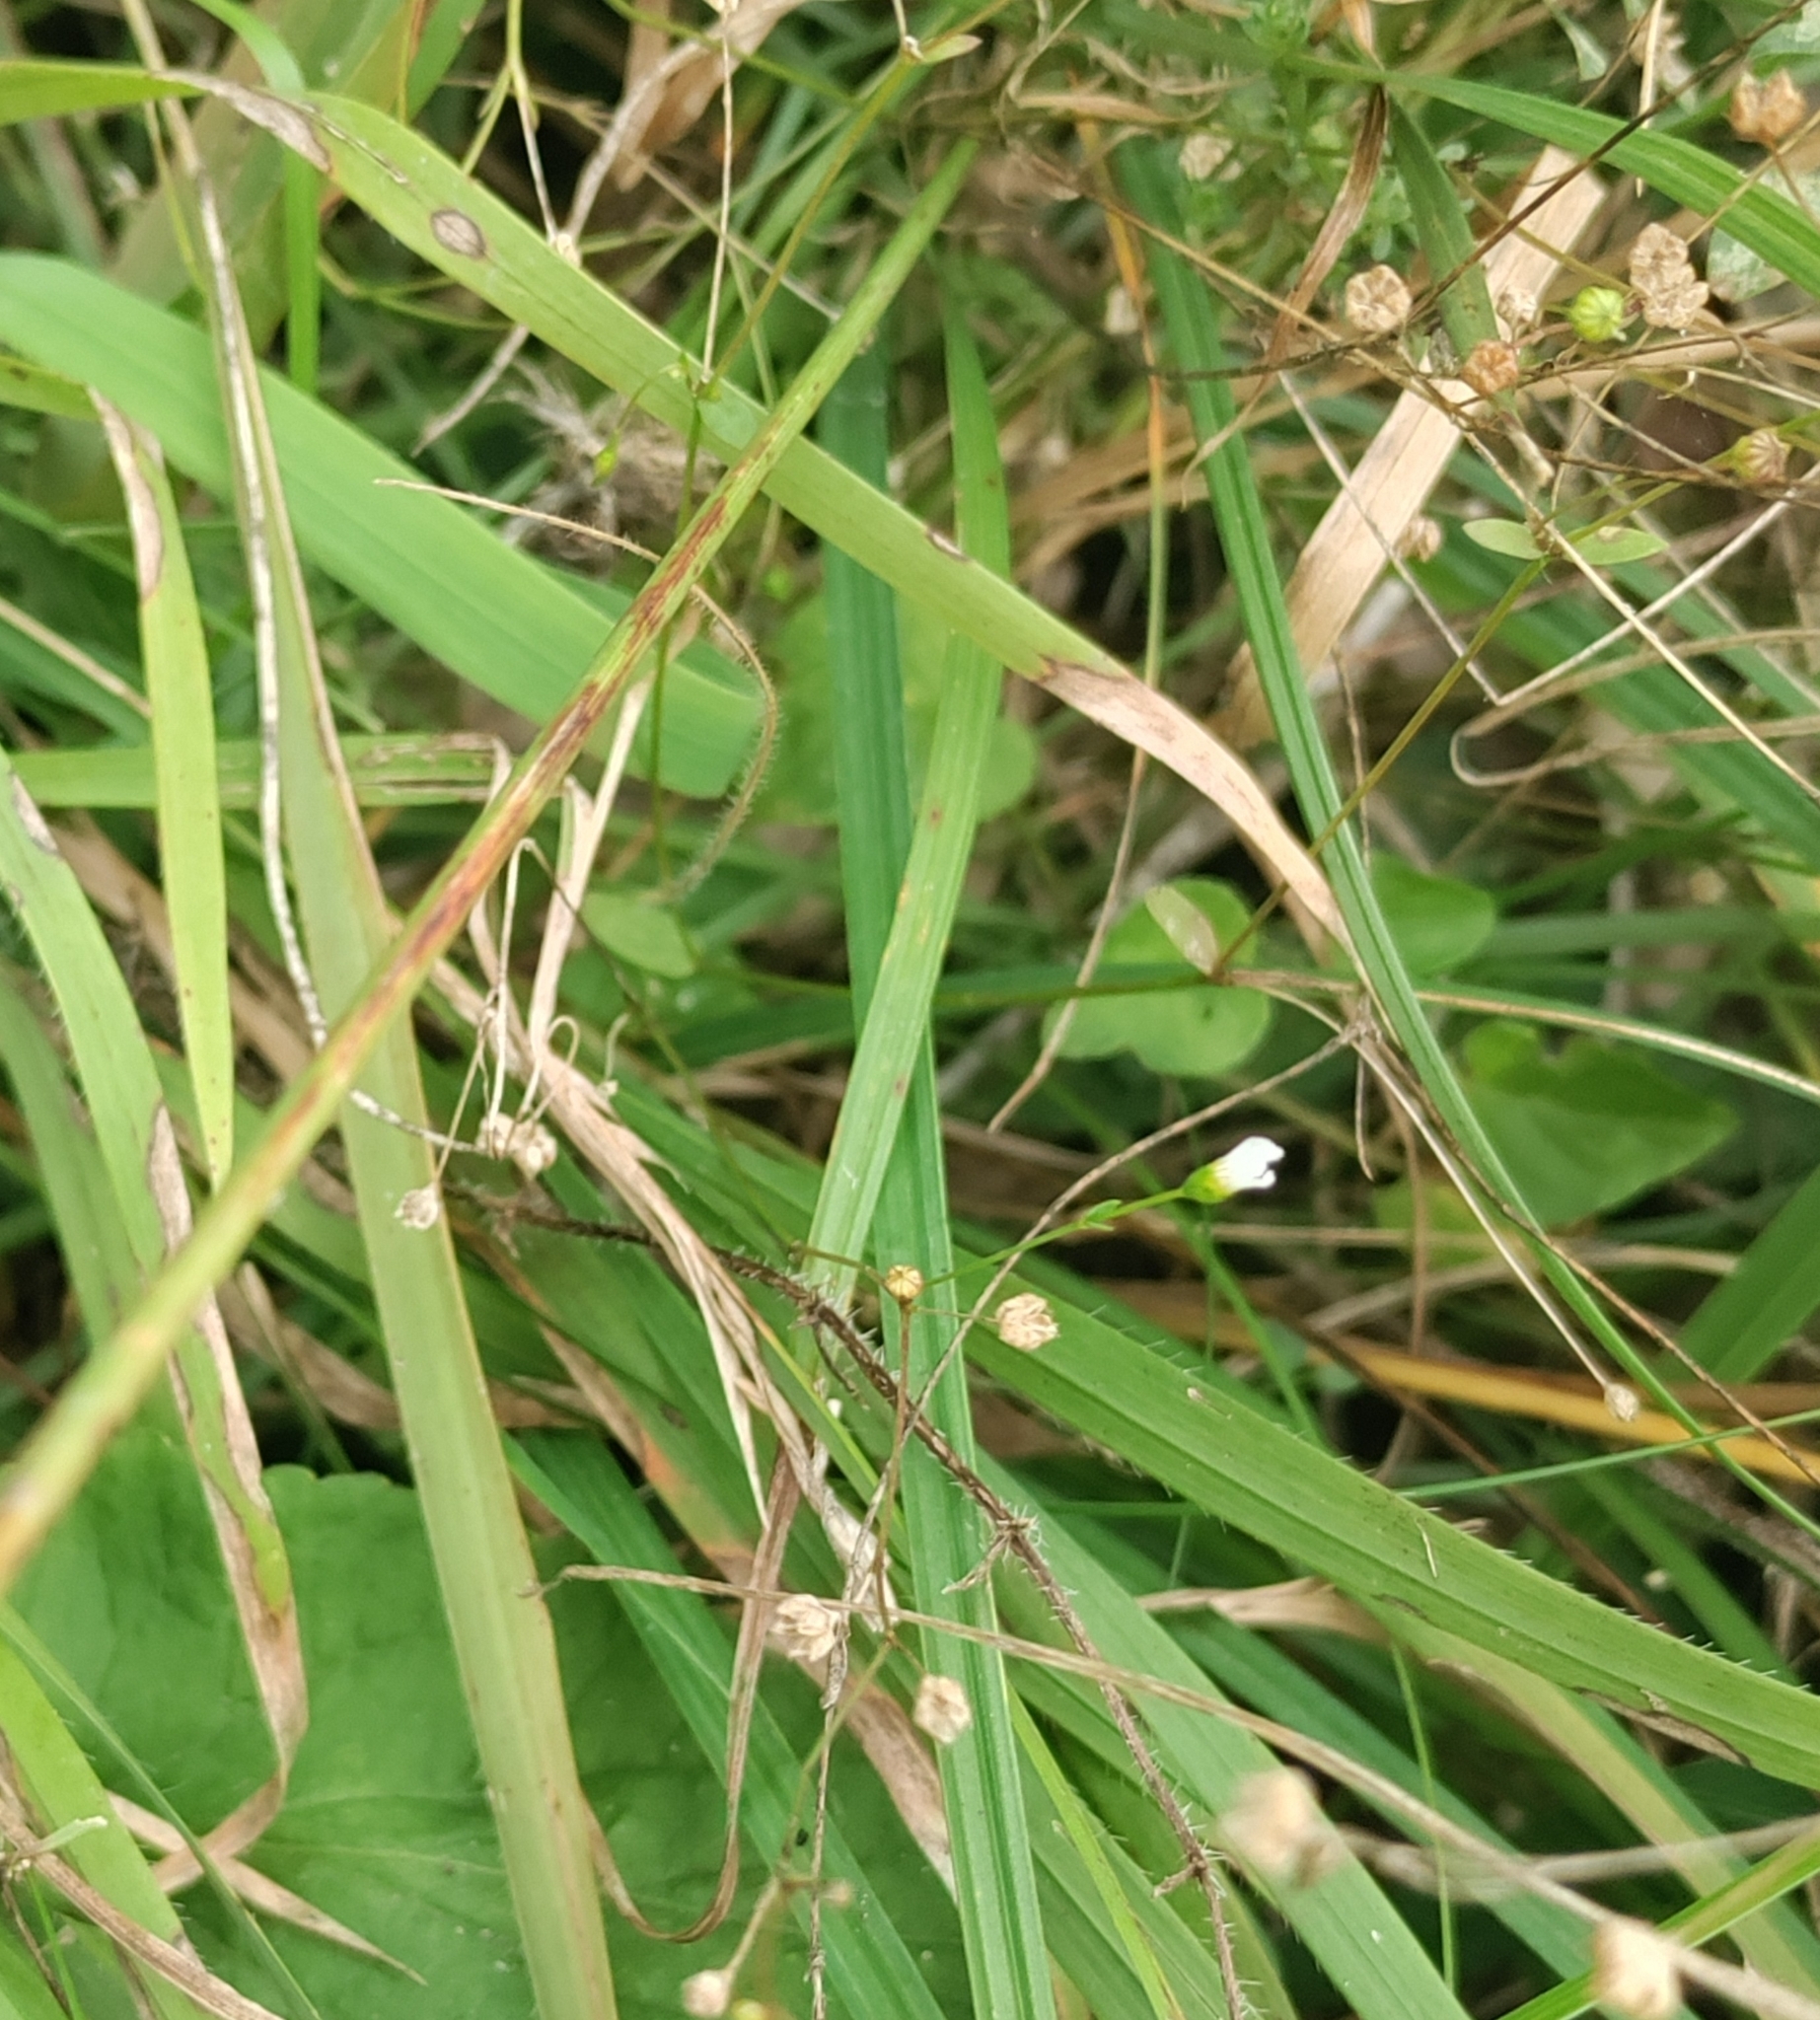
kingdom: Plantae
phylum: Tracheophyta
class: Magnoliopsida
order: Malpighiales
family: Linaceae
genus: Linum
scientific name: Linum catharticum
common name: Fairy flax
